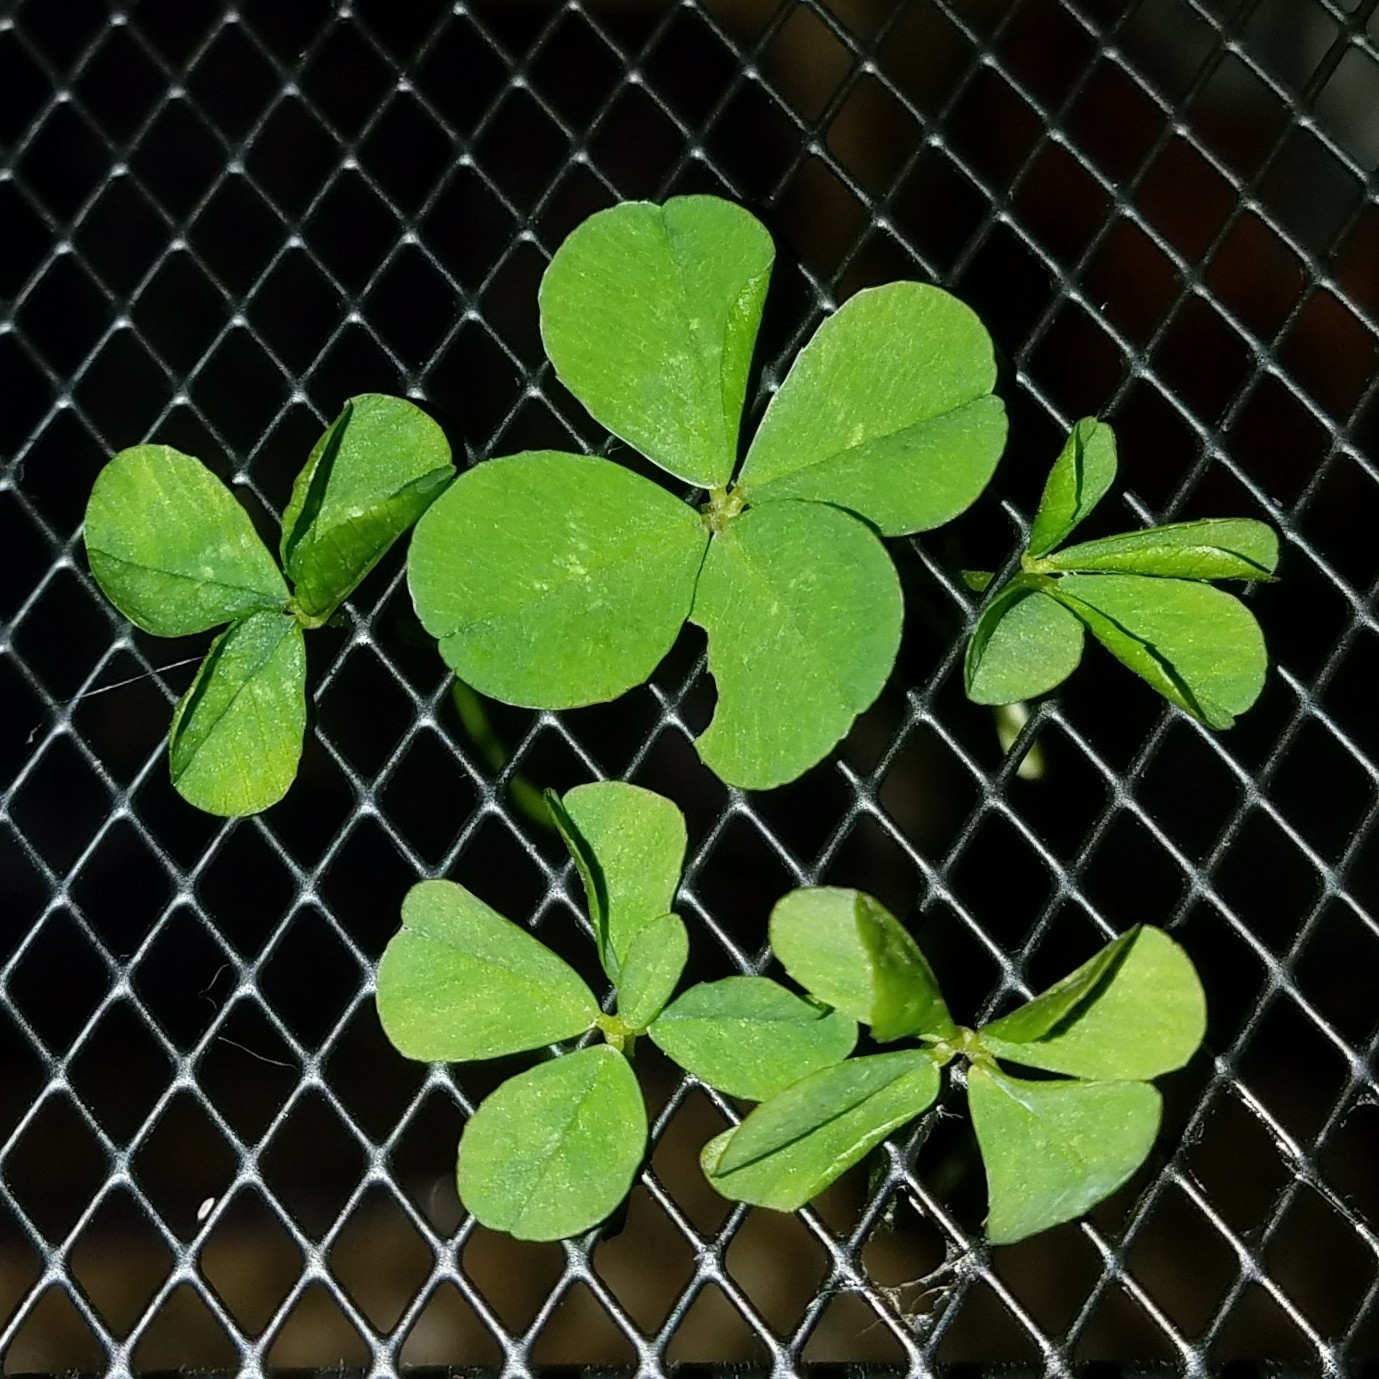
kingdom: Plantae
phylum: Tracheophyta
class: Magnoliopsida
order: Fabales
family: Fabaceae
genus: Trifolium
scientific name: Trifolium repens
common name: White clover
